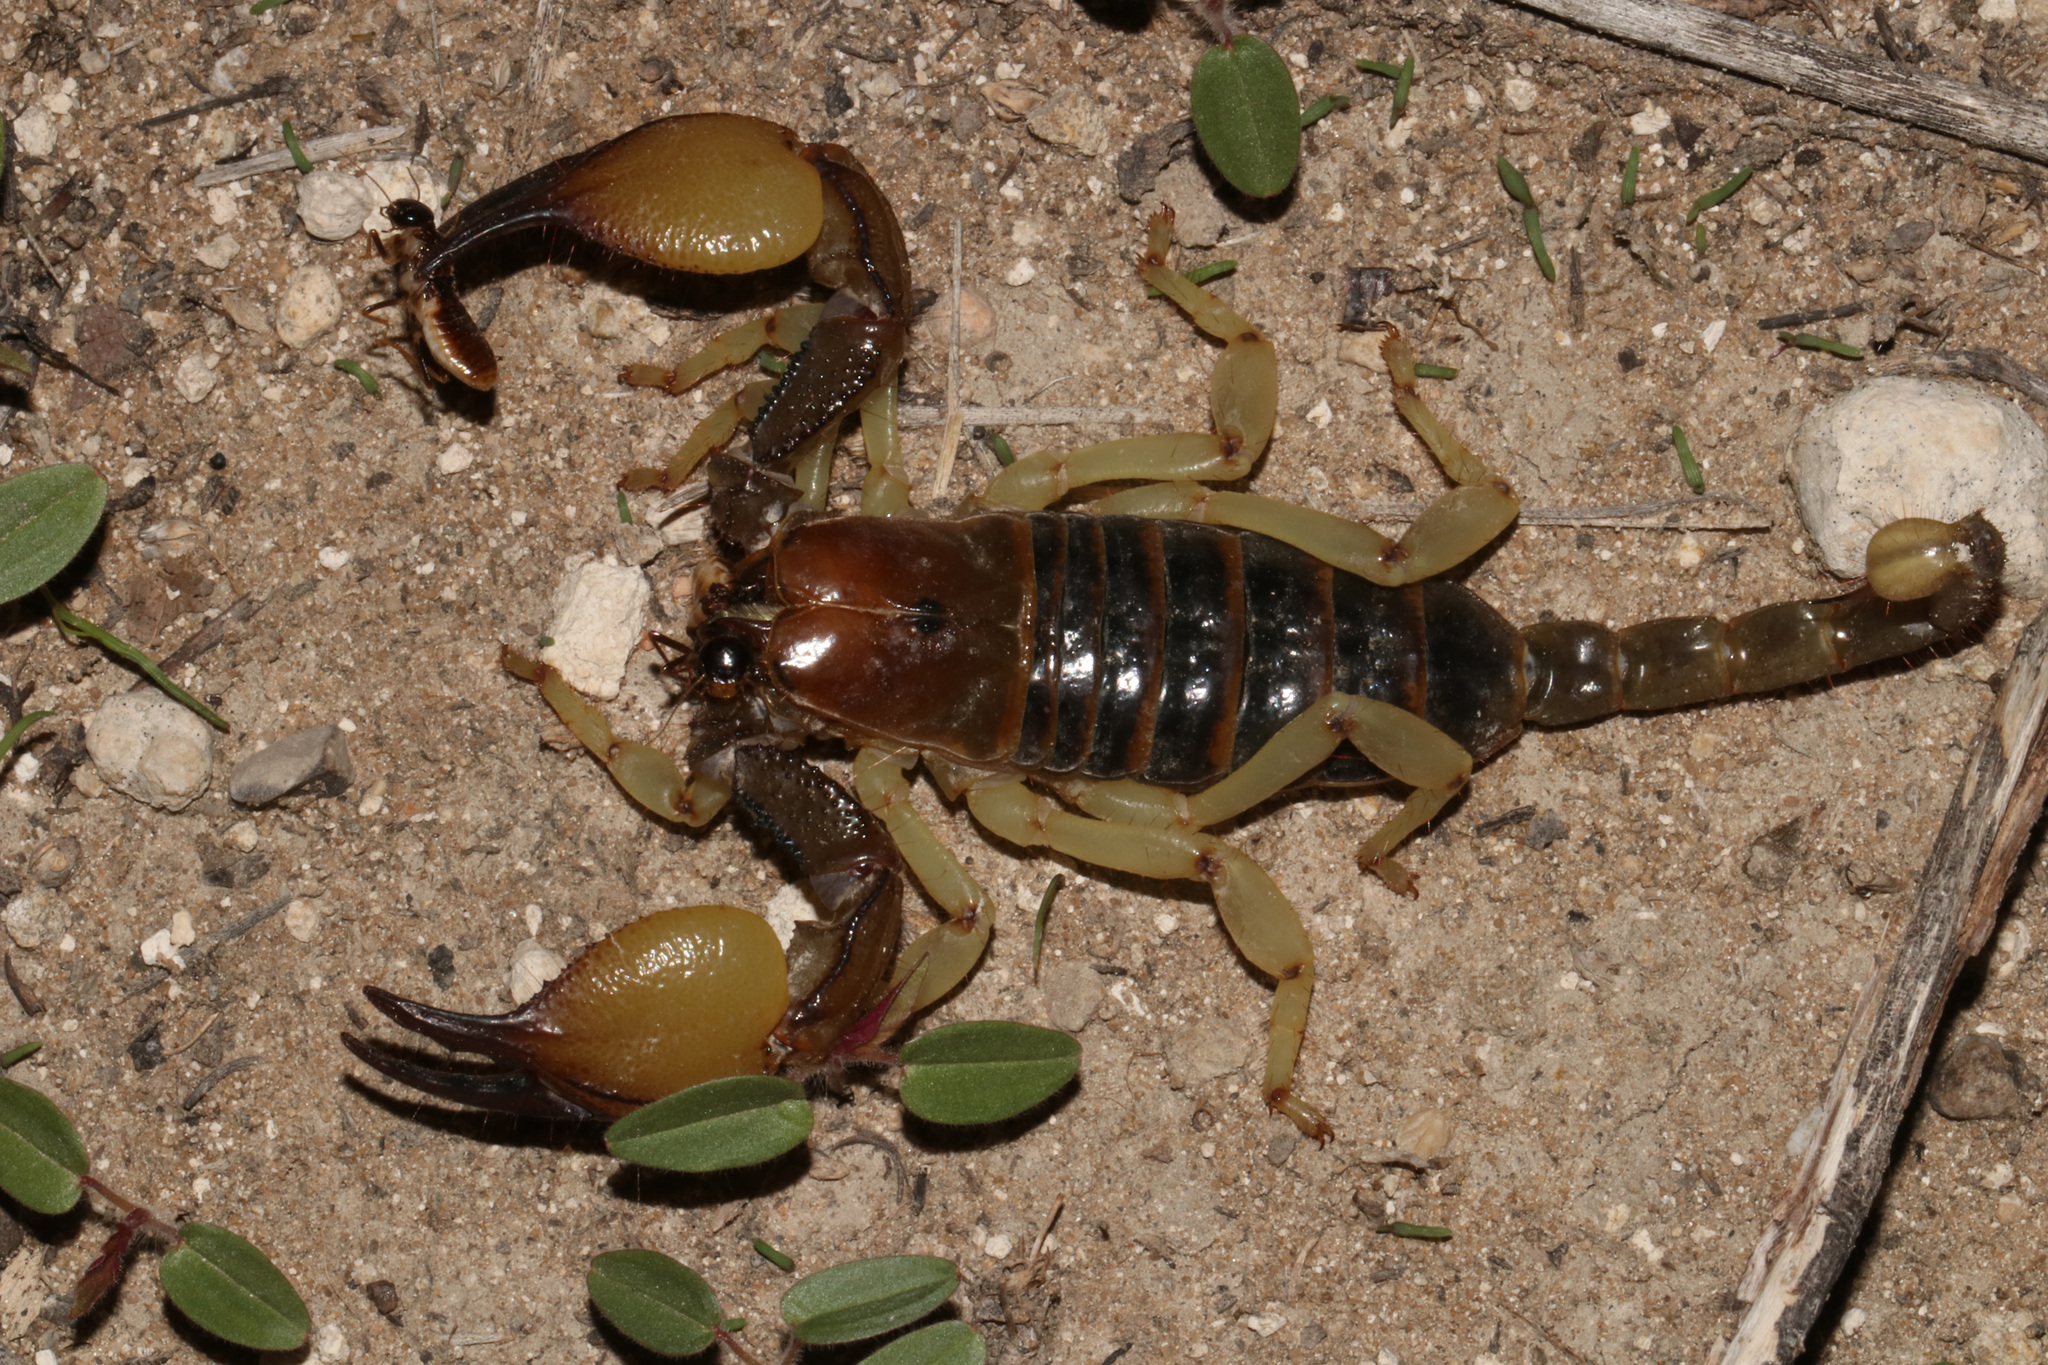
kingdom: Animalia
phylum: Arthropoda
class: Arachnida
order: Scorpiones
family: Scorpionidae
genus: Opistophthalmus
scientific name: Opistophthalmus carinatus
